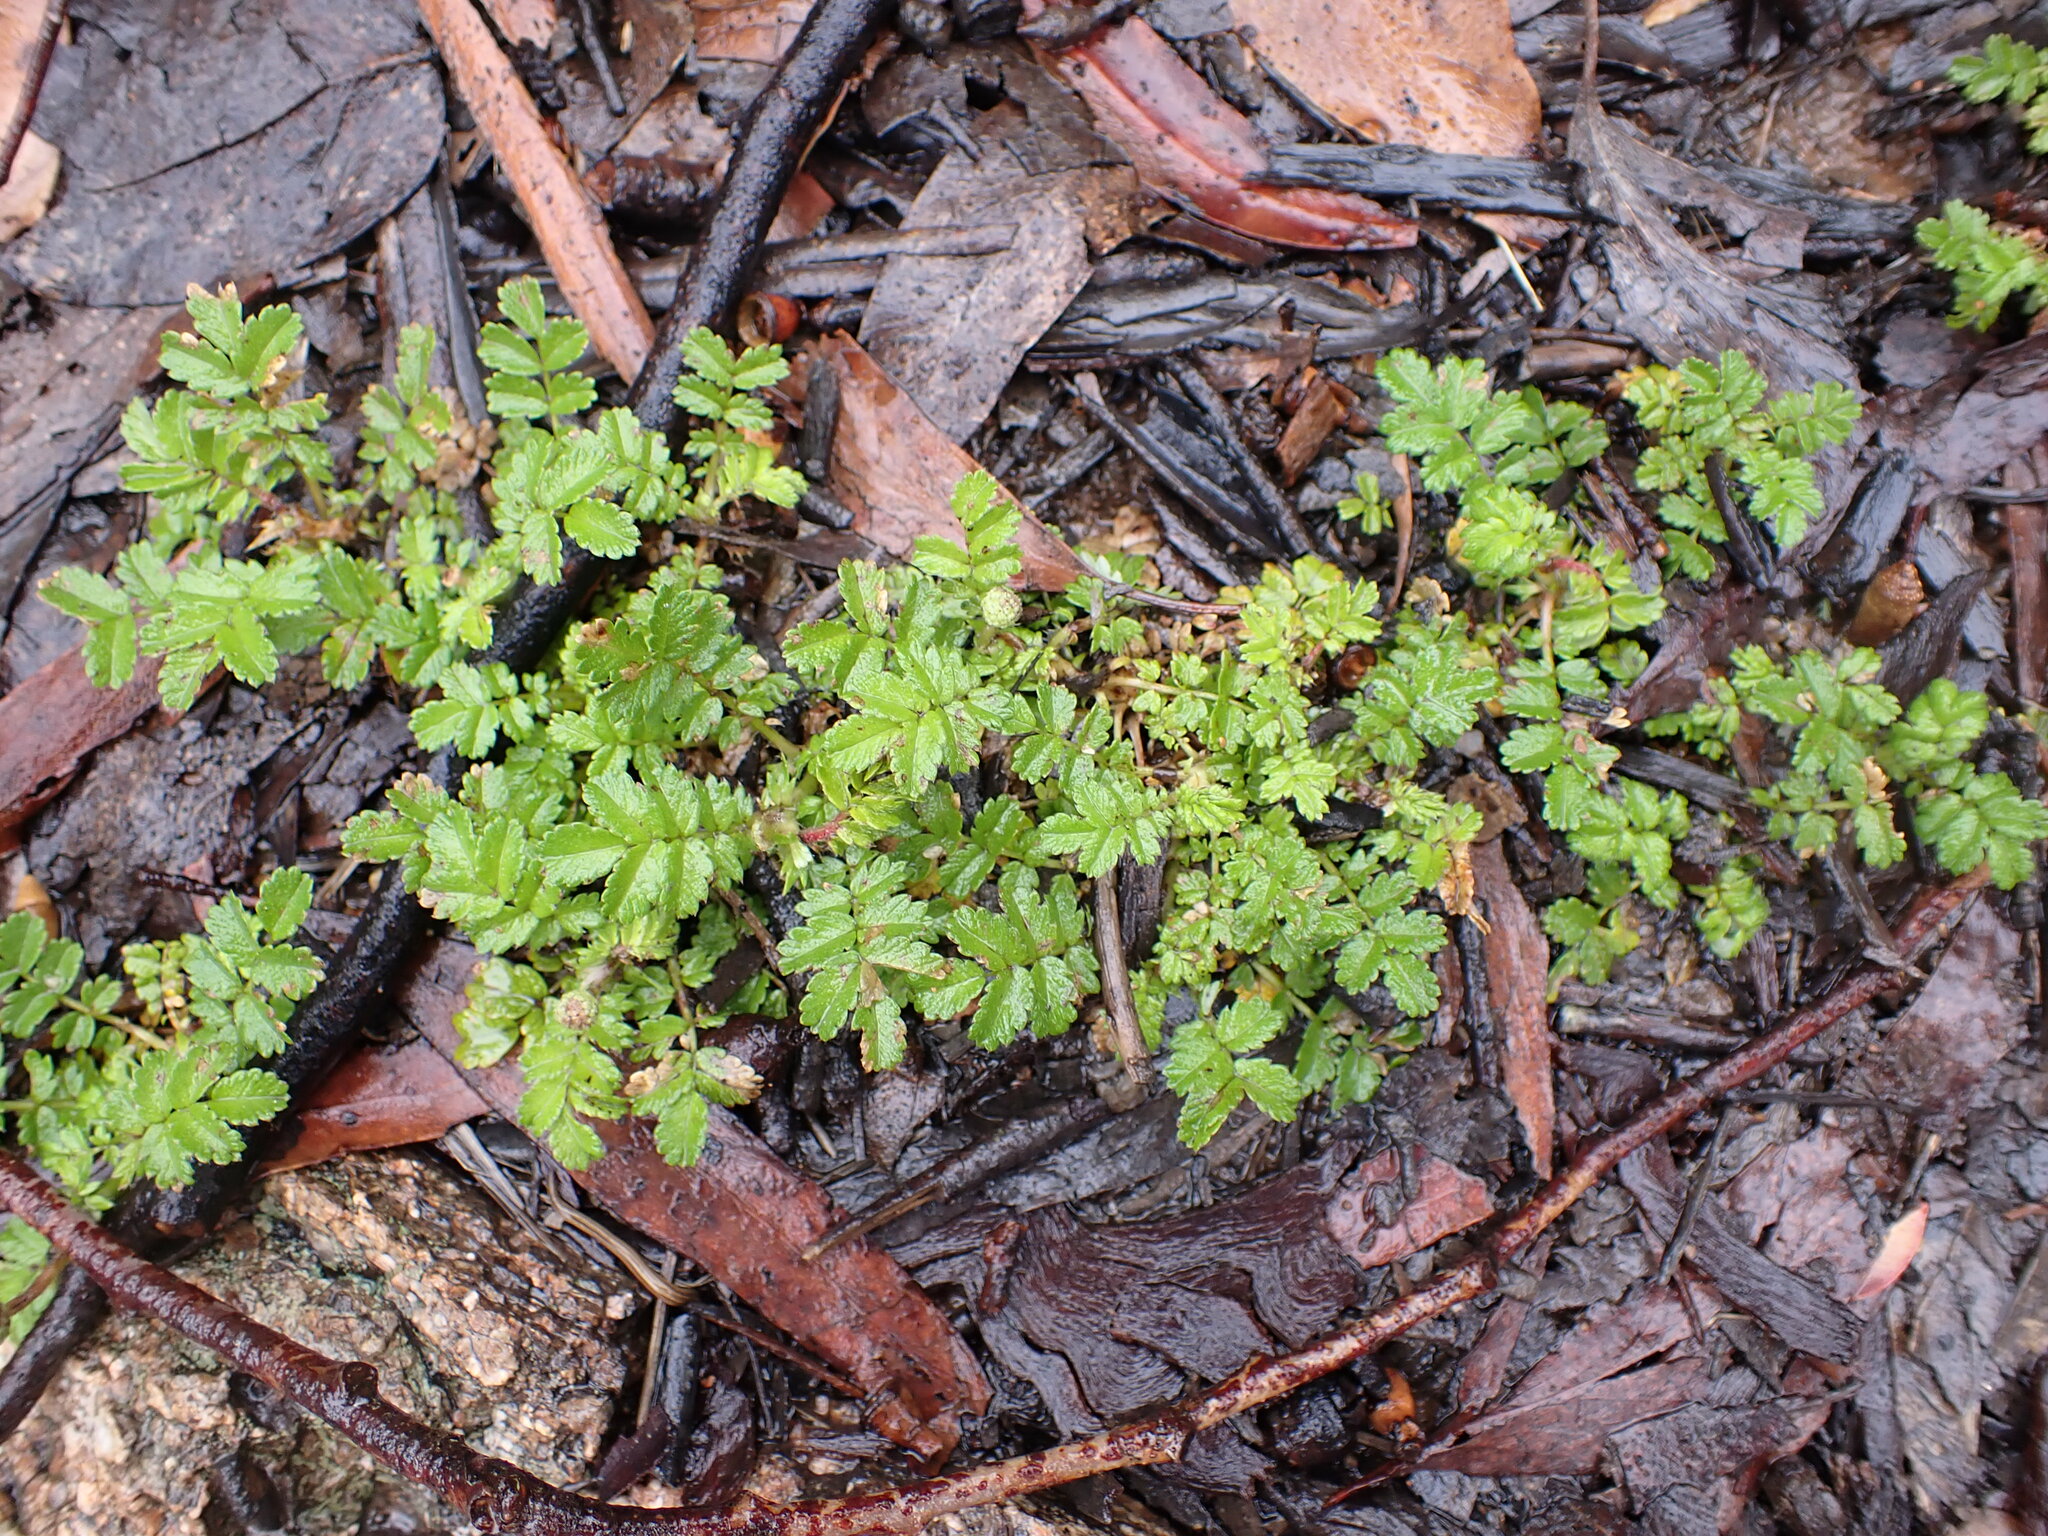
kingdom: Plantae
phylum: Tracheophyta
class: Magnoliopsida
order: Rosales
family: Rosaceae
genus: Acaena
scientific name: Acaena novae-zelandiae
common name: Pirri-pirri-bur
